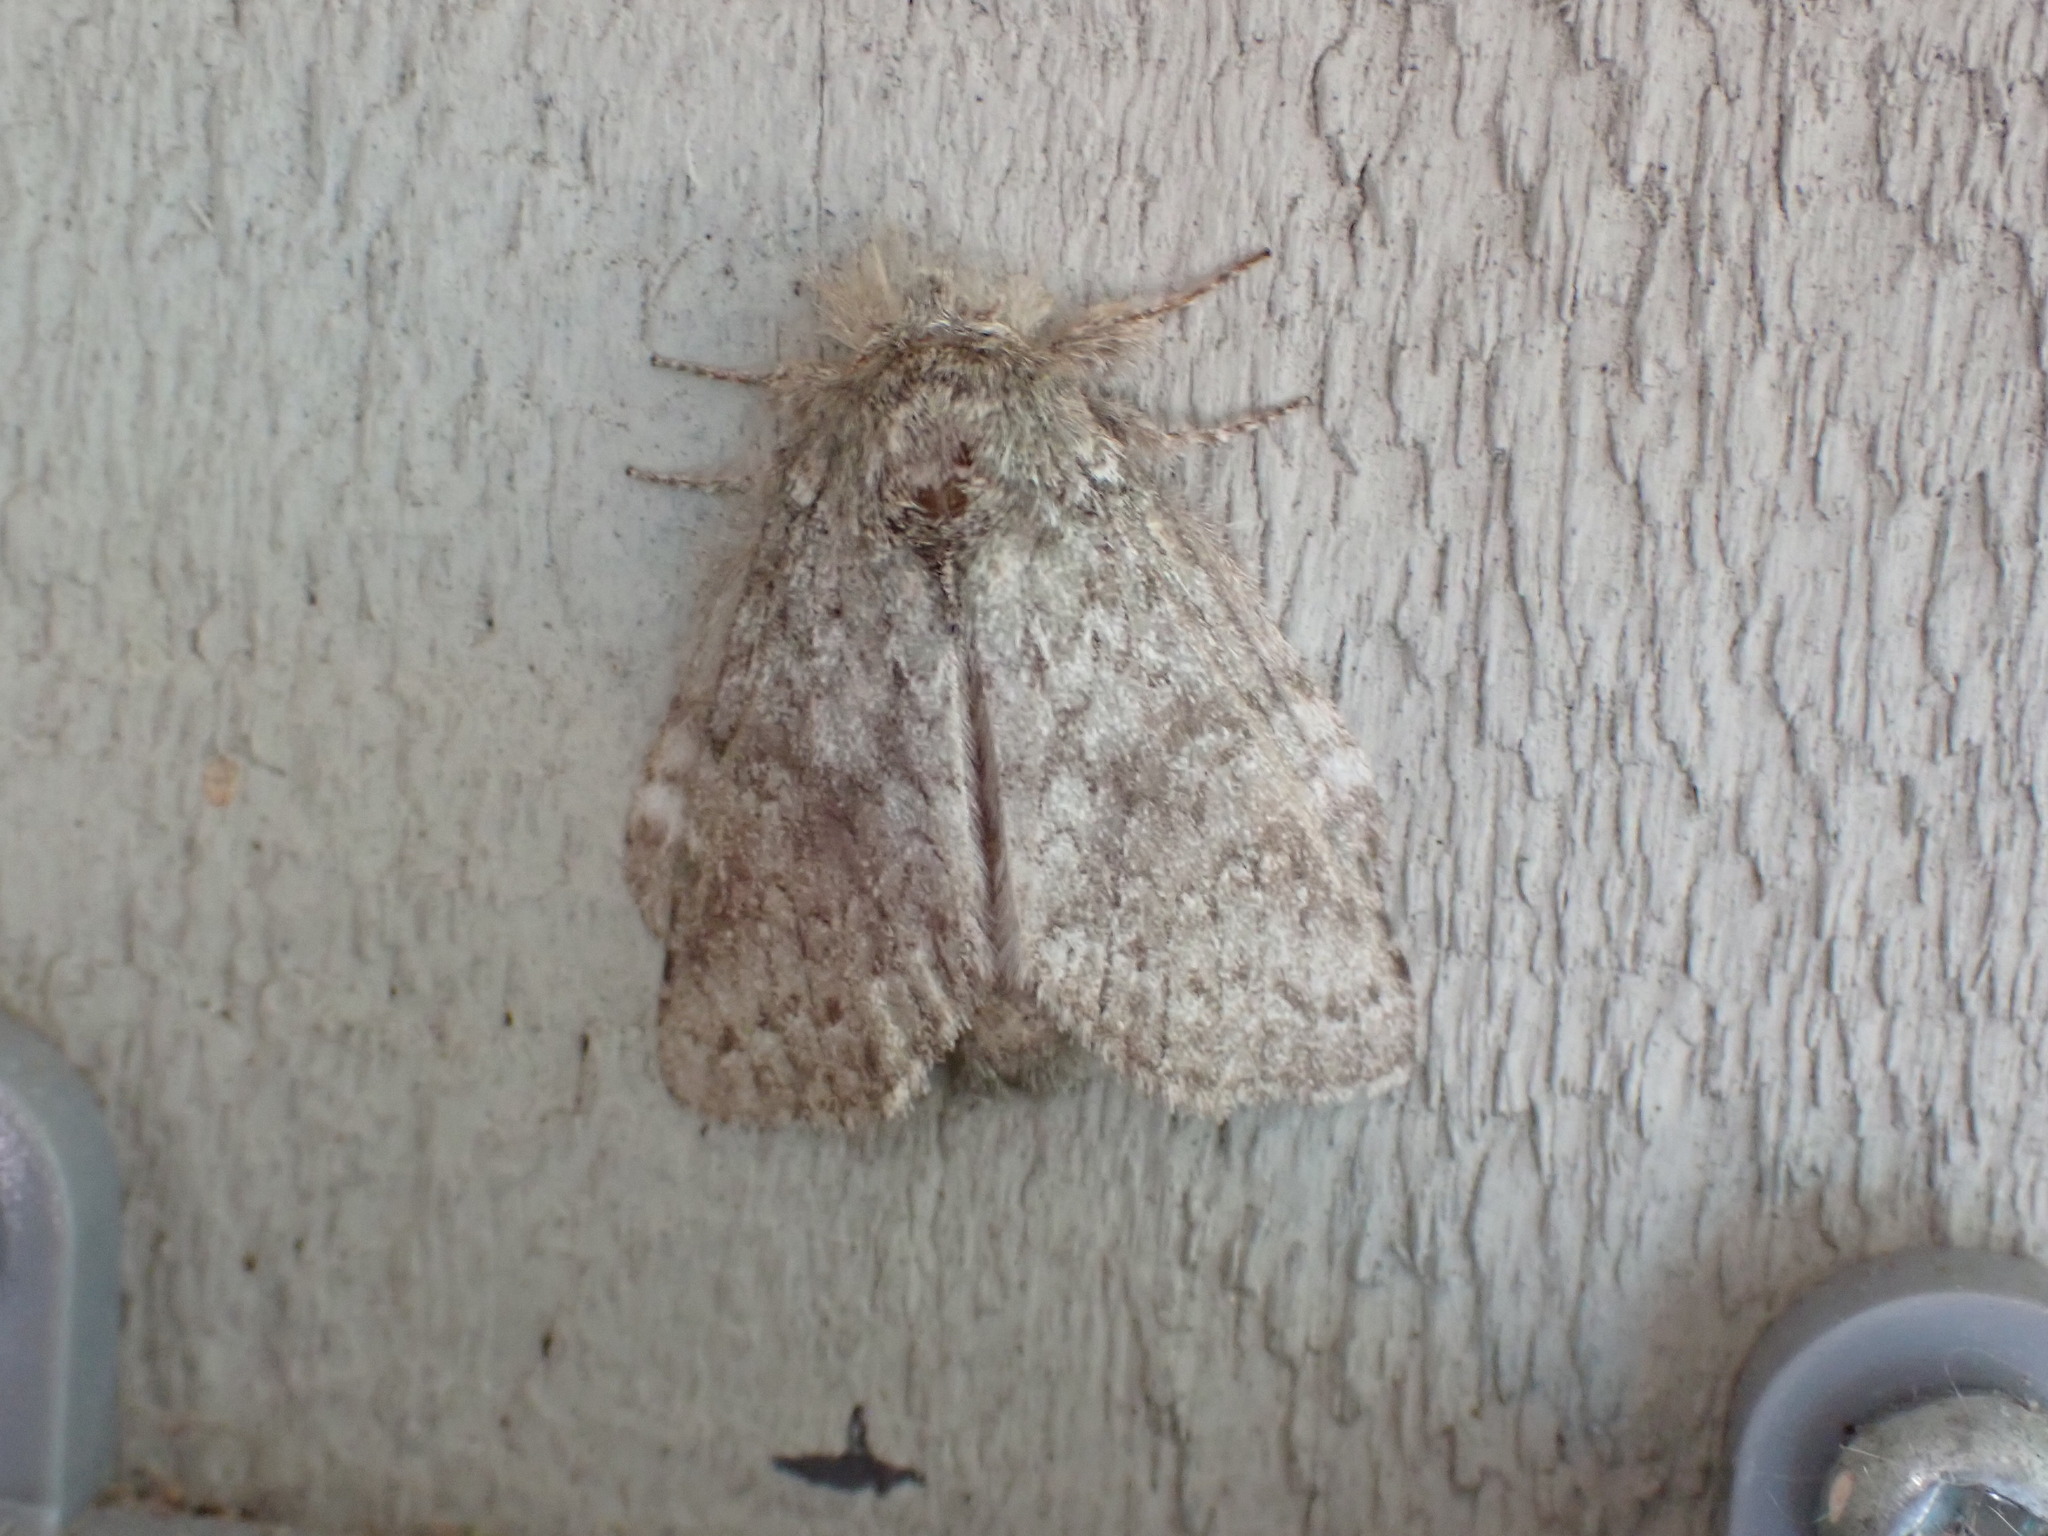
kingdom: Animalia
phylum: Arthropoda
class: Insecta
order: Lepidoptera
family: Notodontidae
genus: Disphragis
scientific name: Disphragis Cecrita guttivitta
